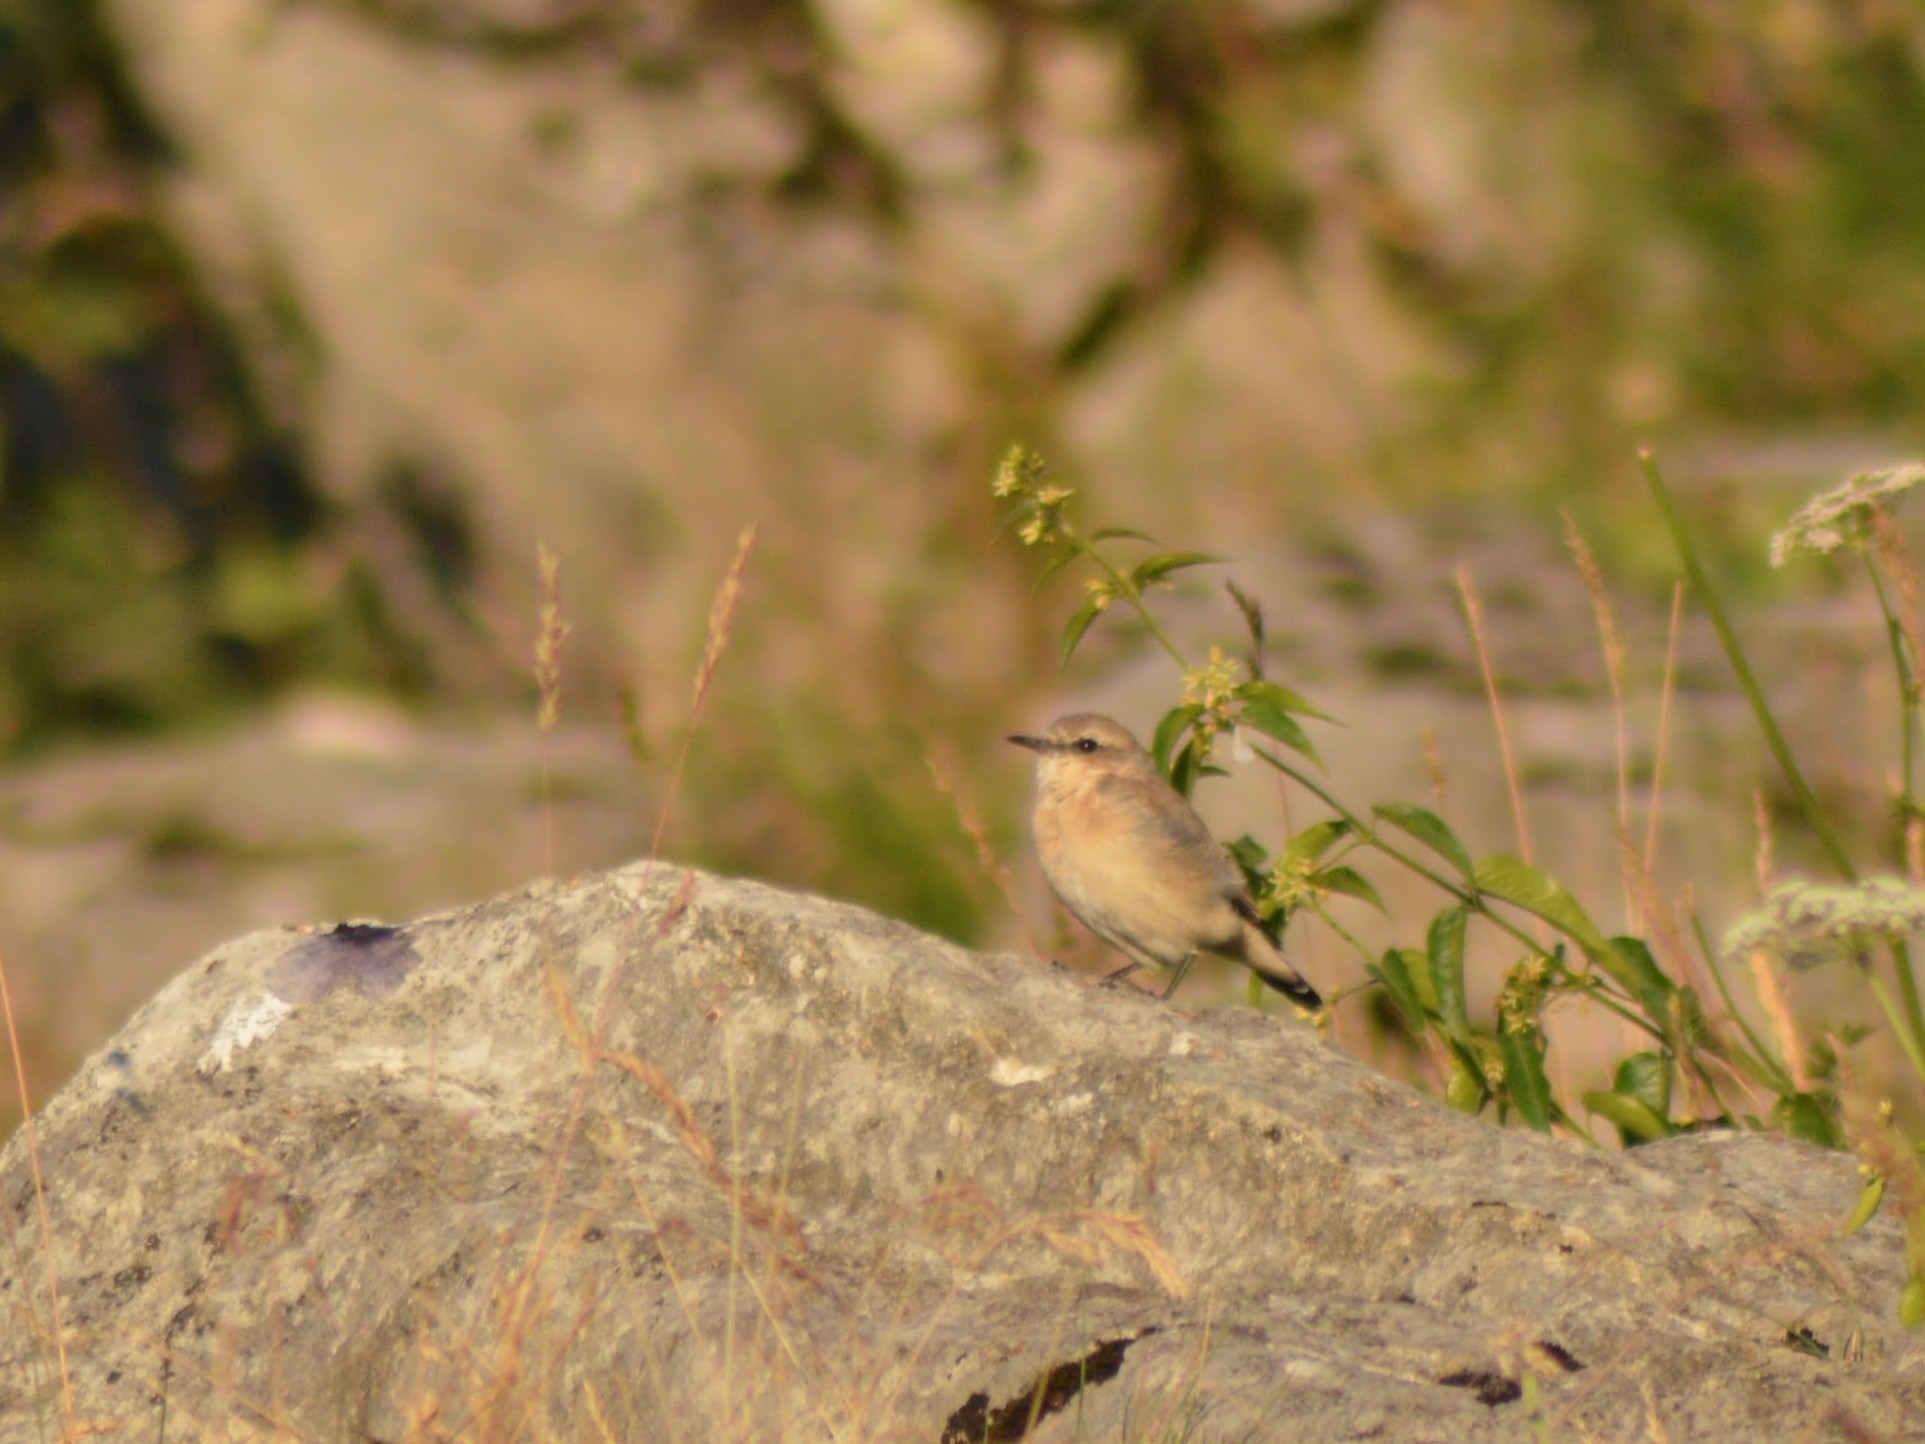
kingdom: Animalia
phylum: Chordata
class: Aves
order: Passeriformes
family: Muscicapidae
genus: Oenanthe
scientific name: Oenanthe oenanthe
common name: Northern wheatear
